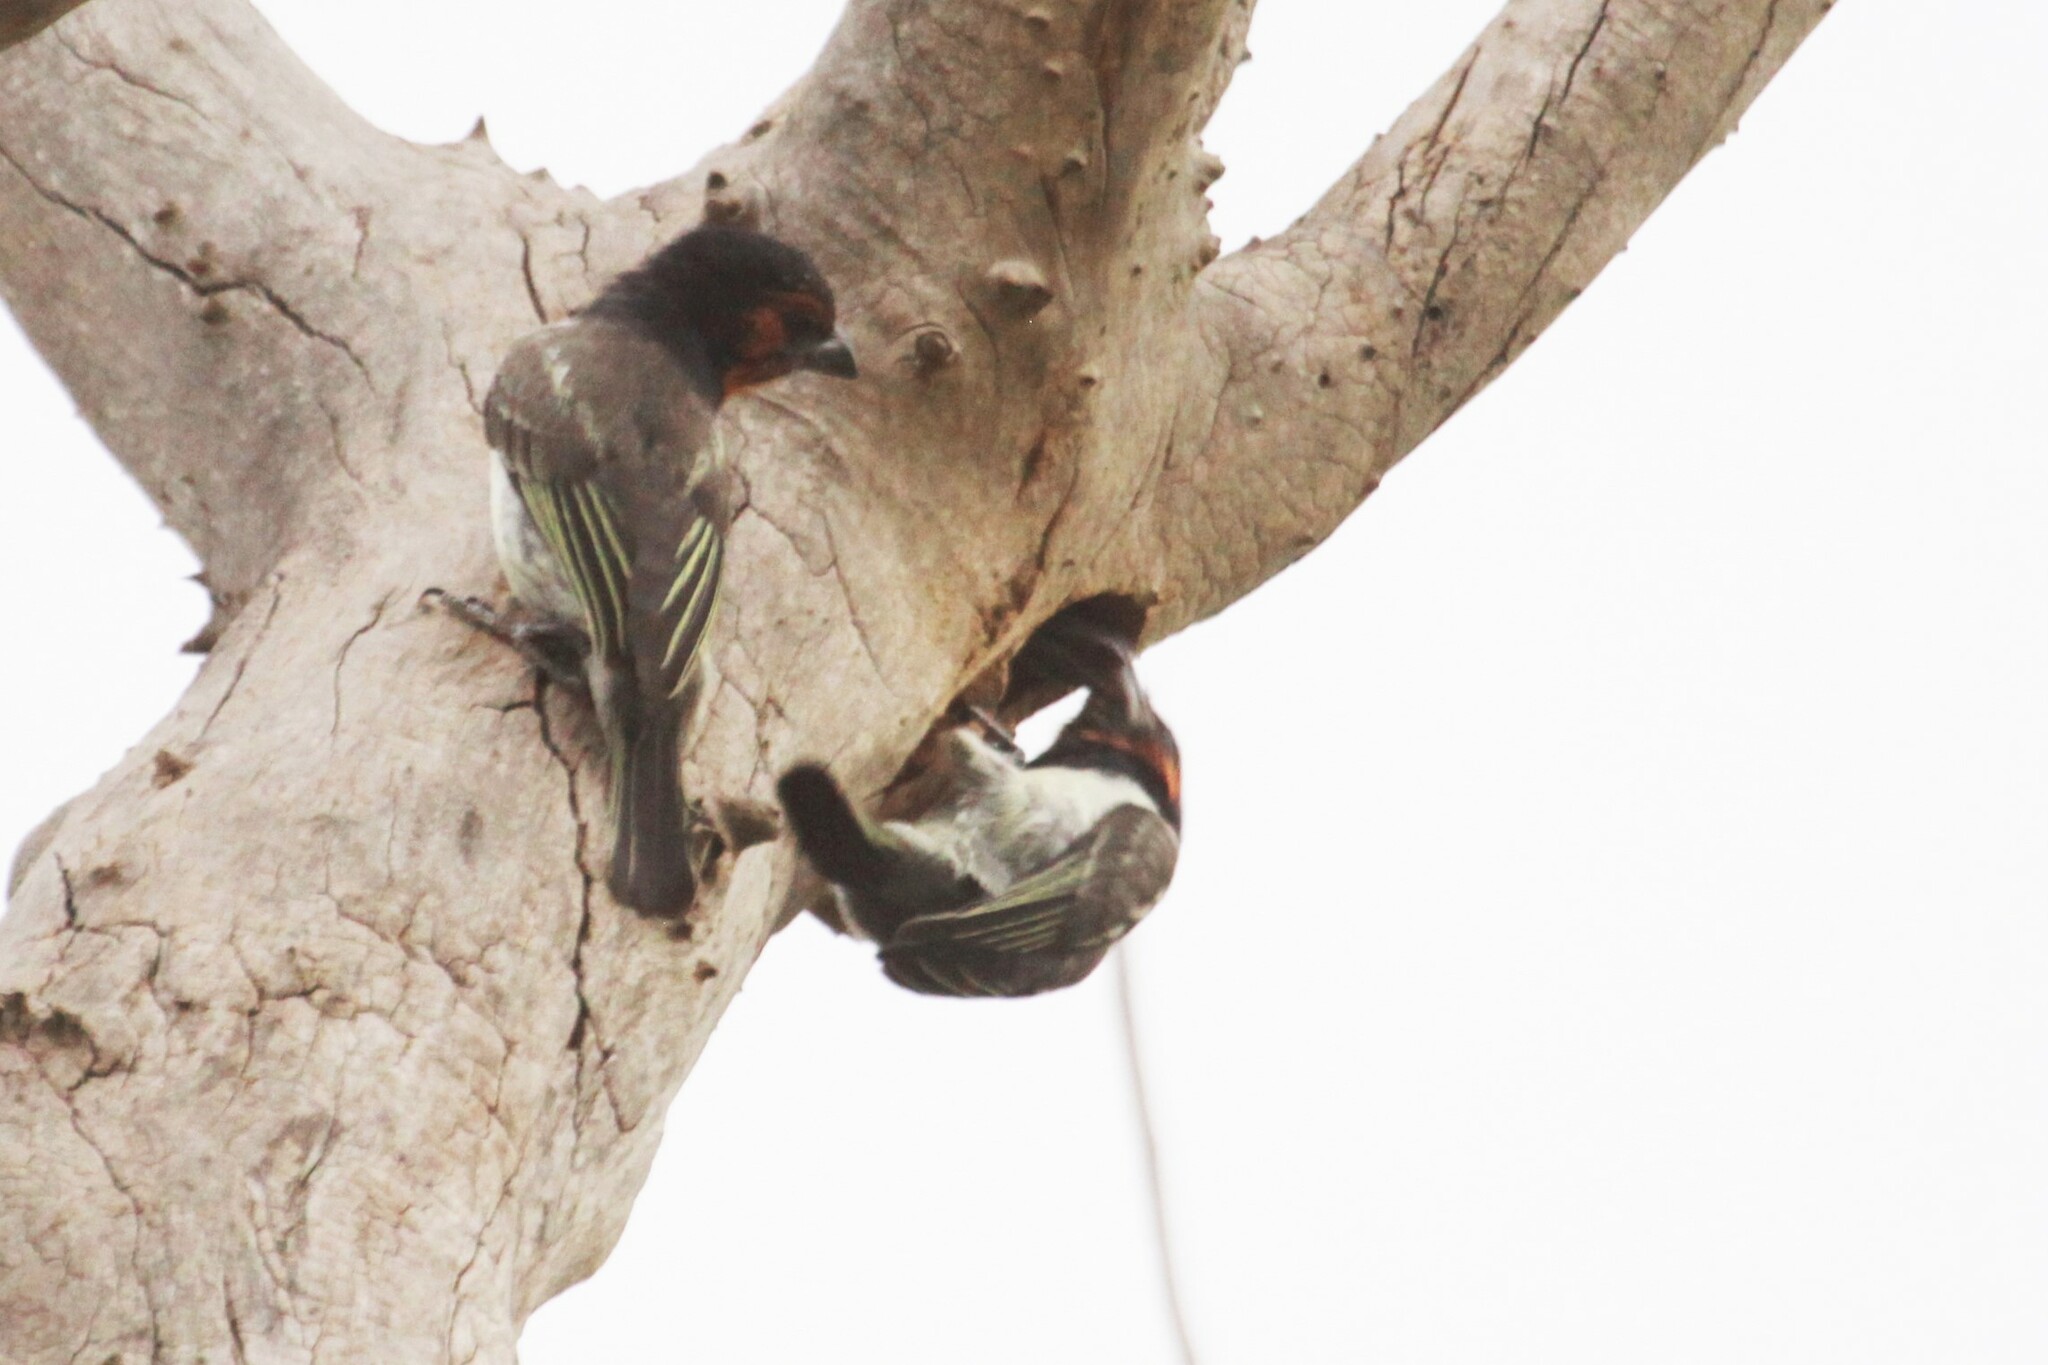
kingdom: Animalia
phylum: Chordata
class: Aves
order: Piciformes
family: Lybiidae
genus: Lybius
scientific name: Lybius torquatus
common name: Black-collared barbet
